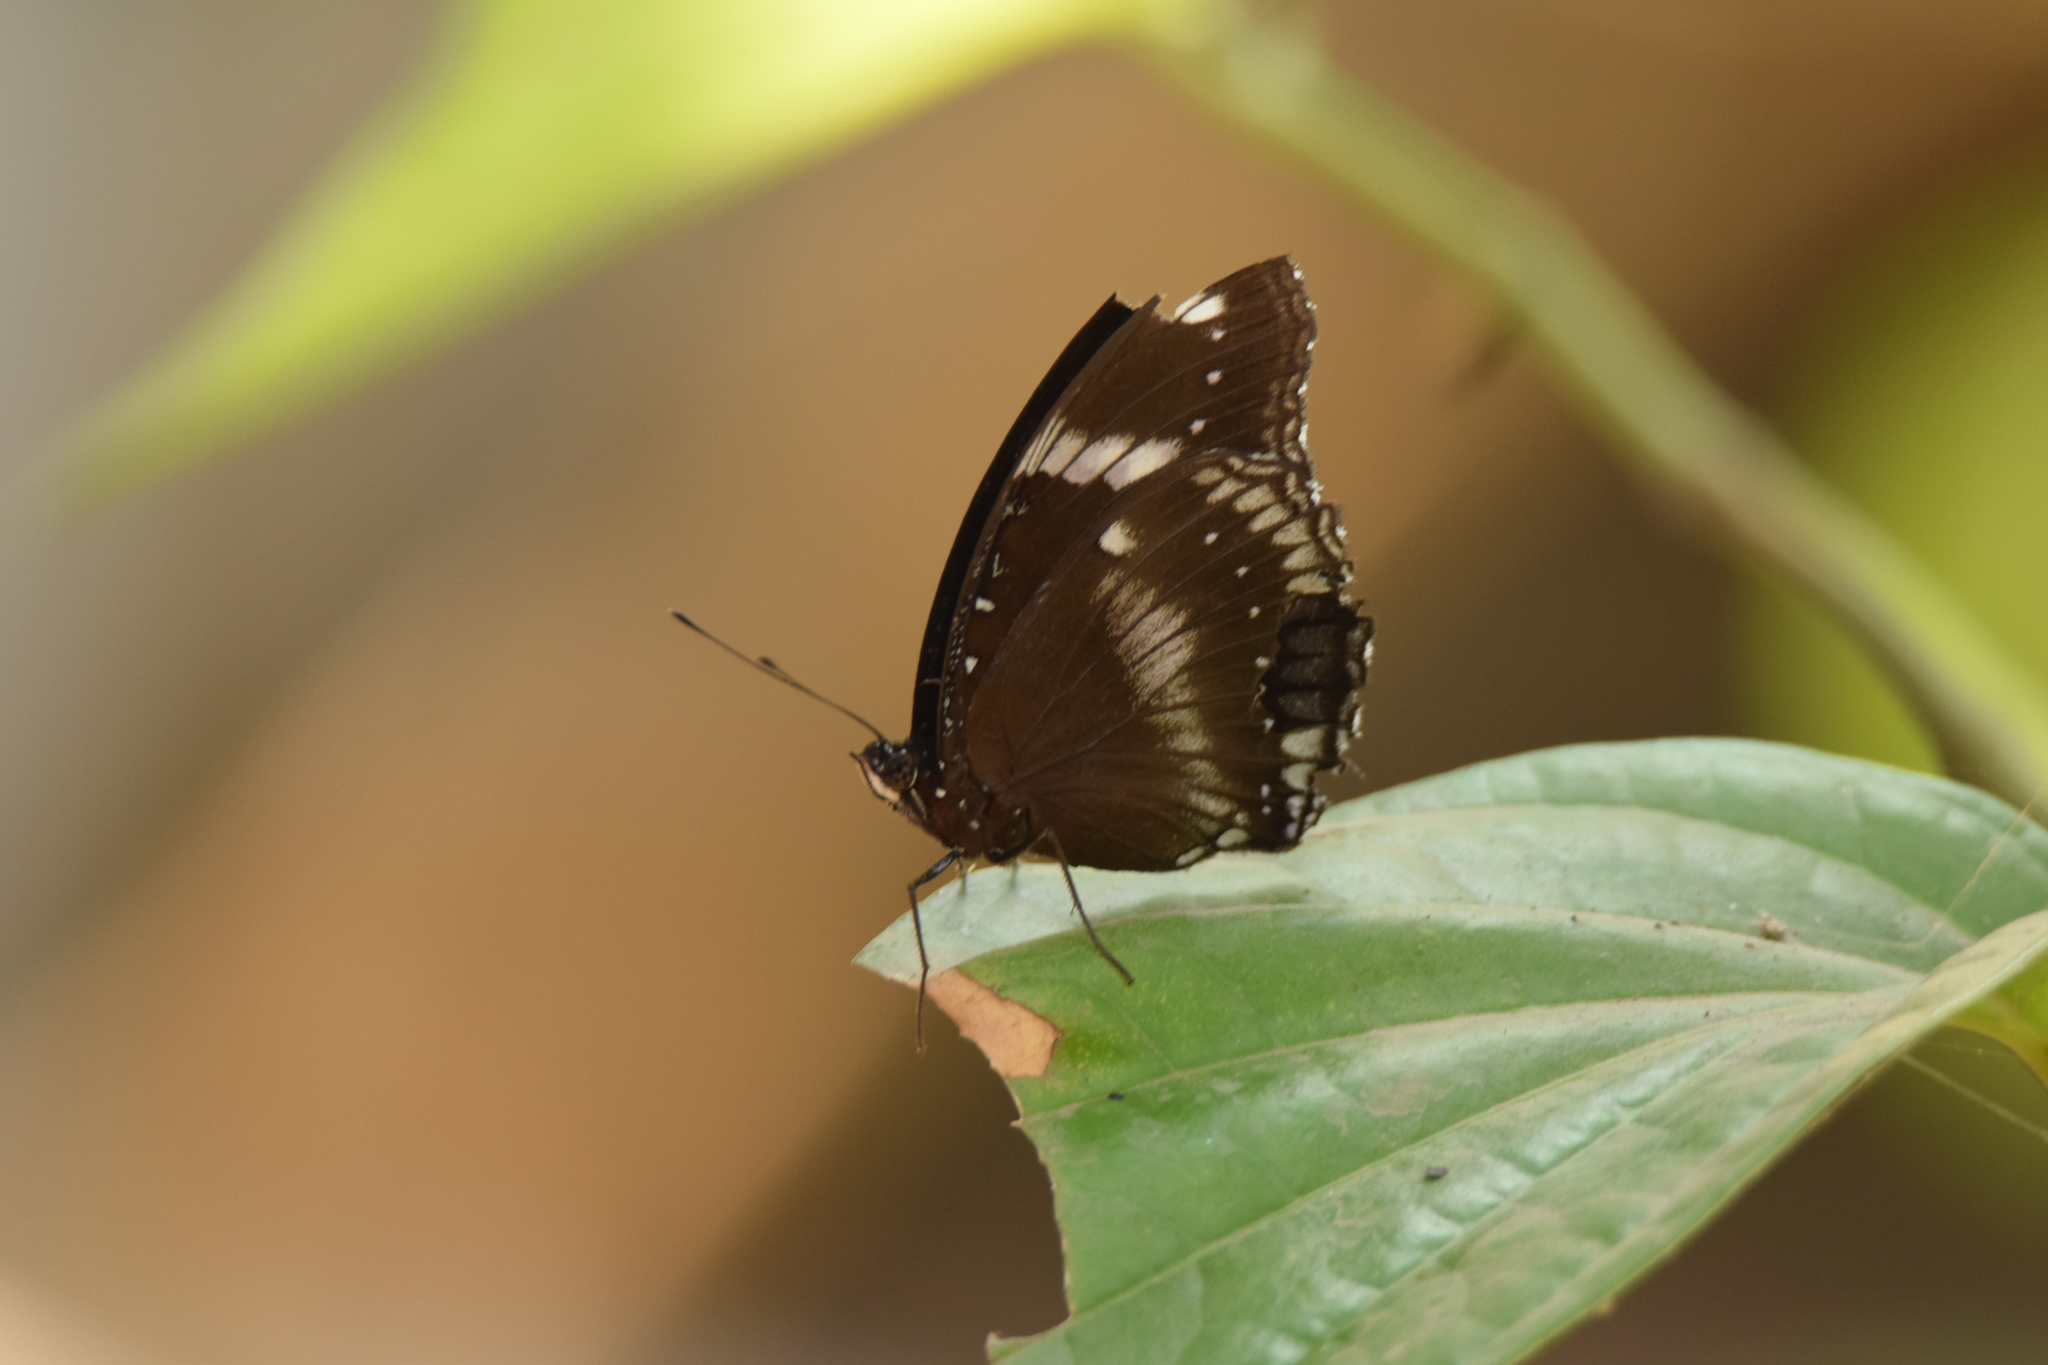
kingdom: Animalia
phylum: Arthropoda
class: Insecta
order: Lepidoptera
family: Nymphalidae
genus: Hypolimnas
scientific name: Hypolimnas bolina
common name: Great eggfly
